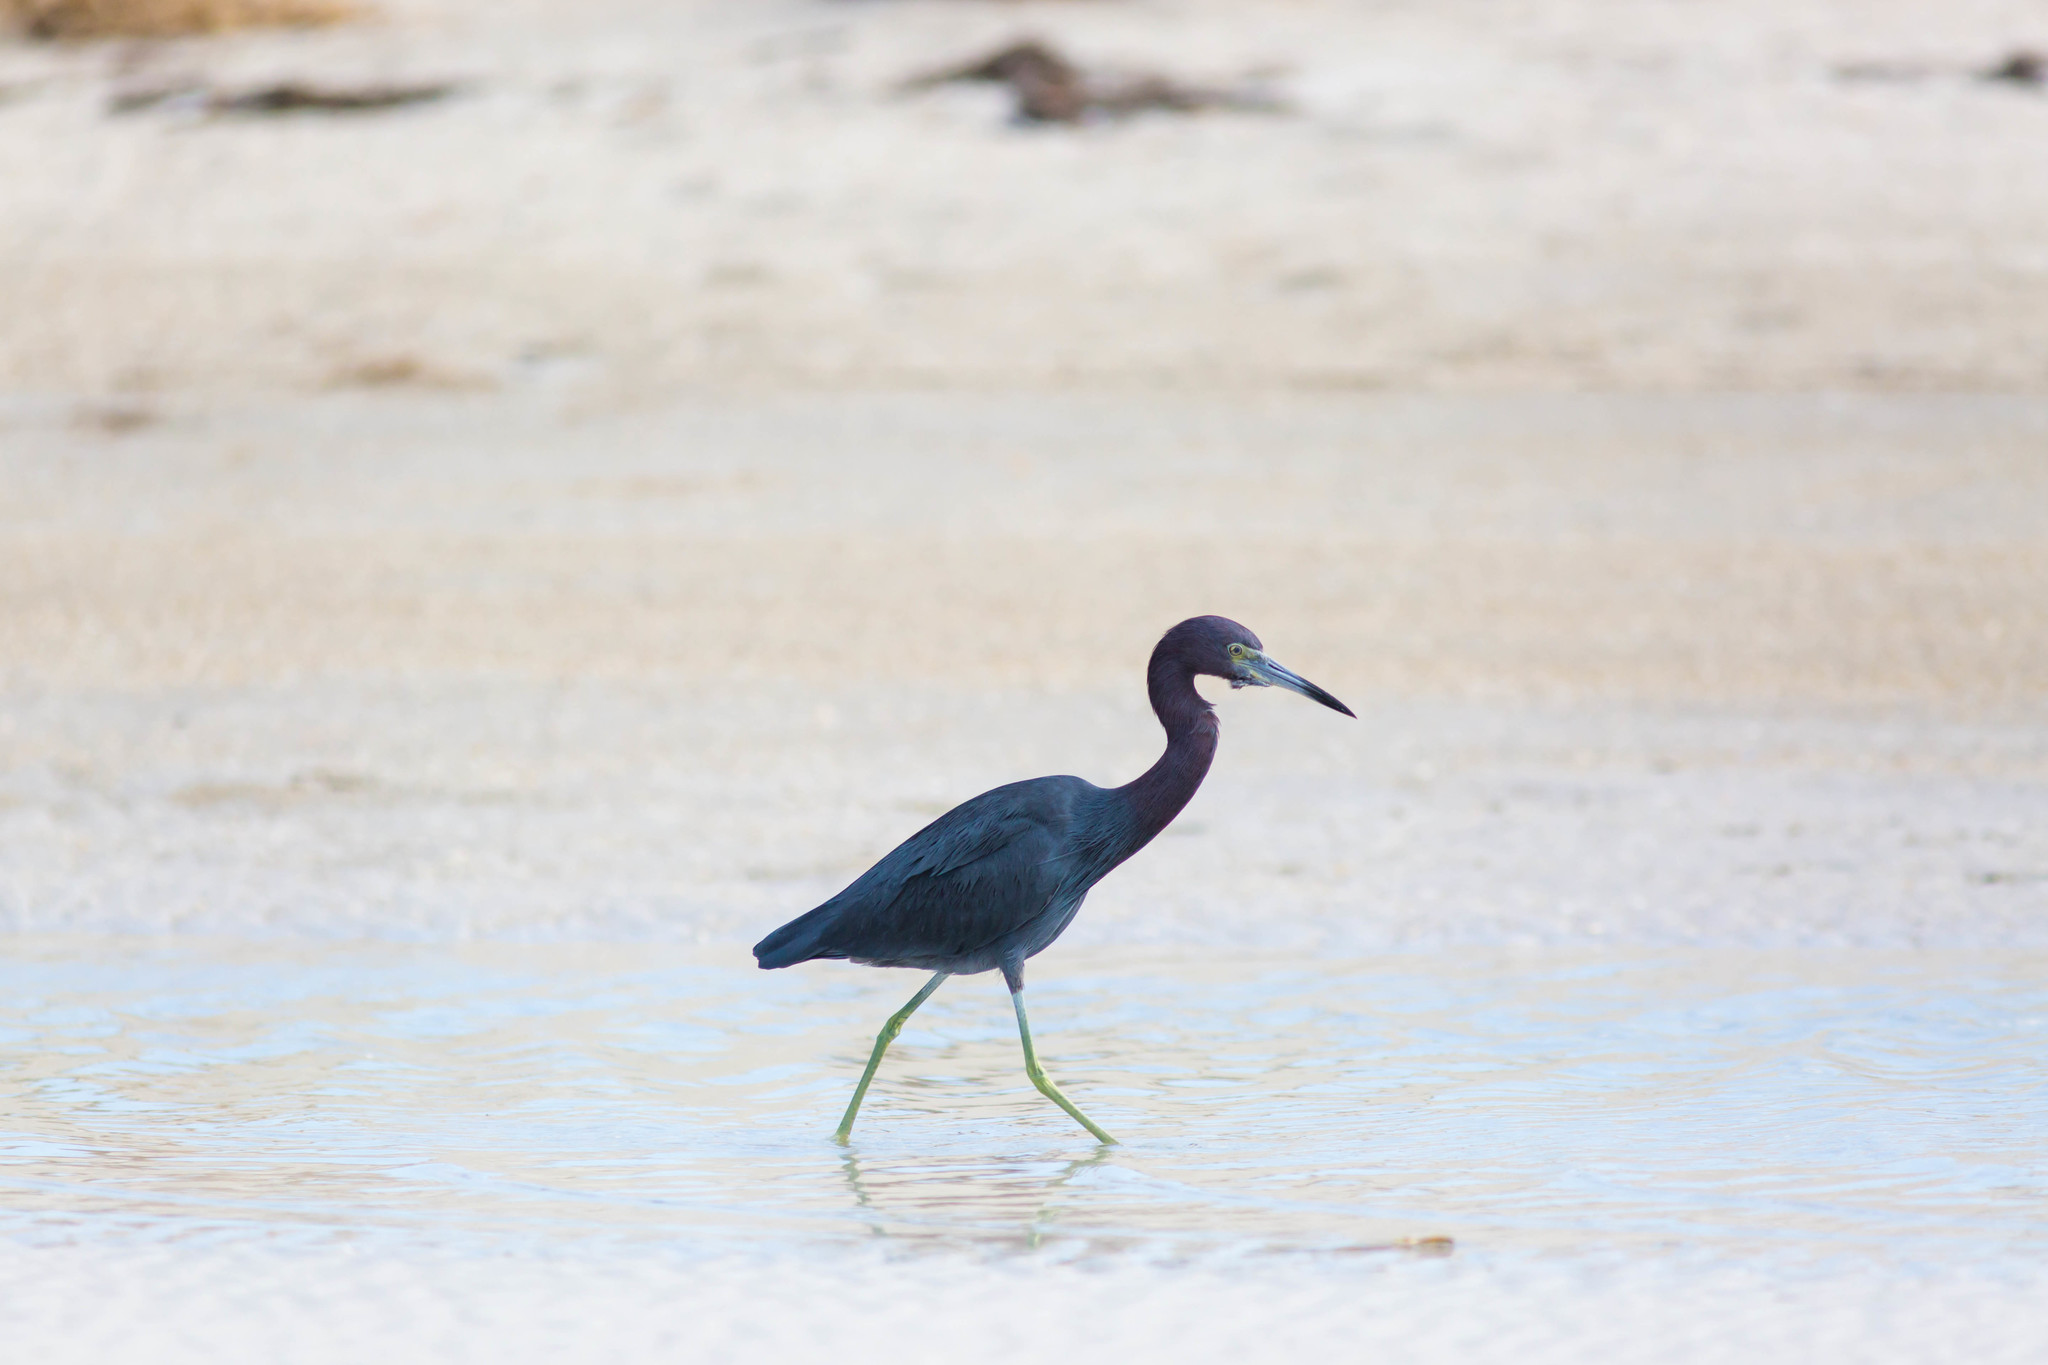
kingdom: Animalia
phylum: Chordata
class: Aves
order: Pelecaniformes
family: Ardeidae
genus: Egretta
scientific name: Egretta caerulea
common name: Little blue heron
